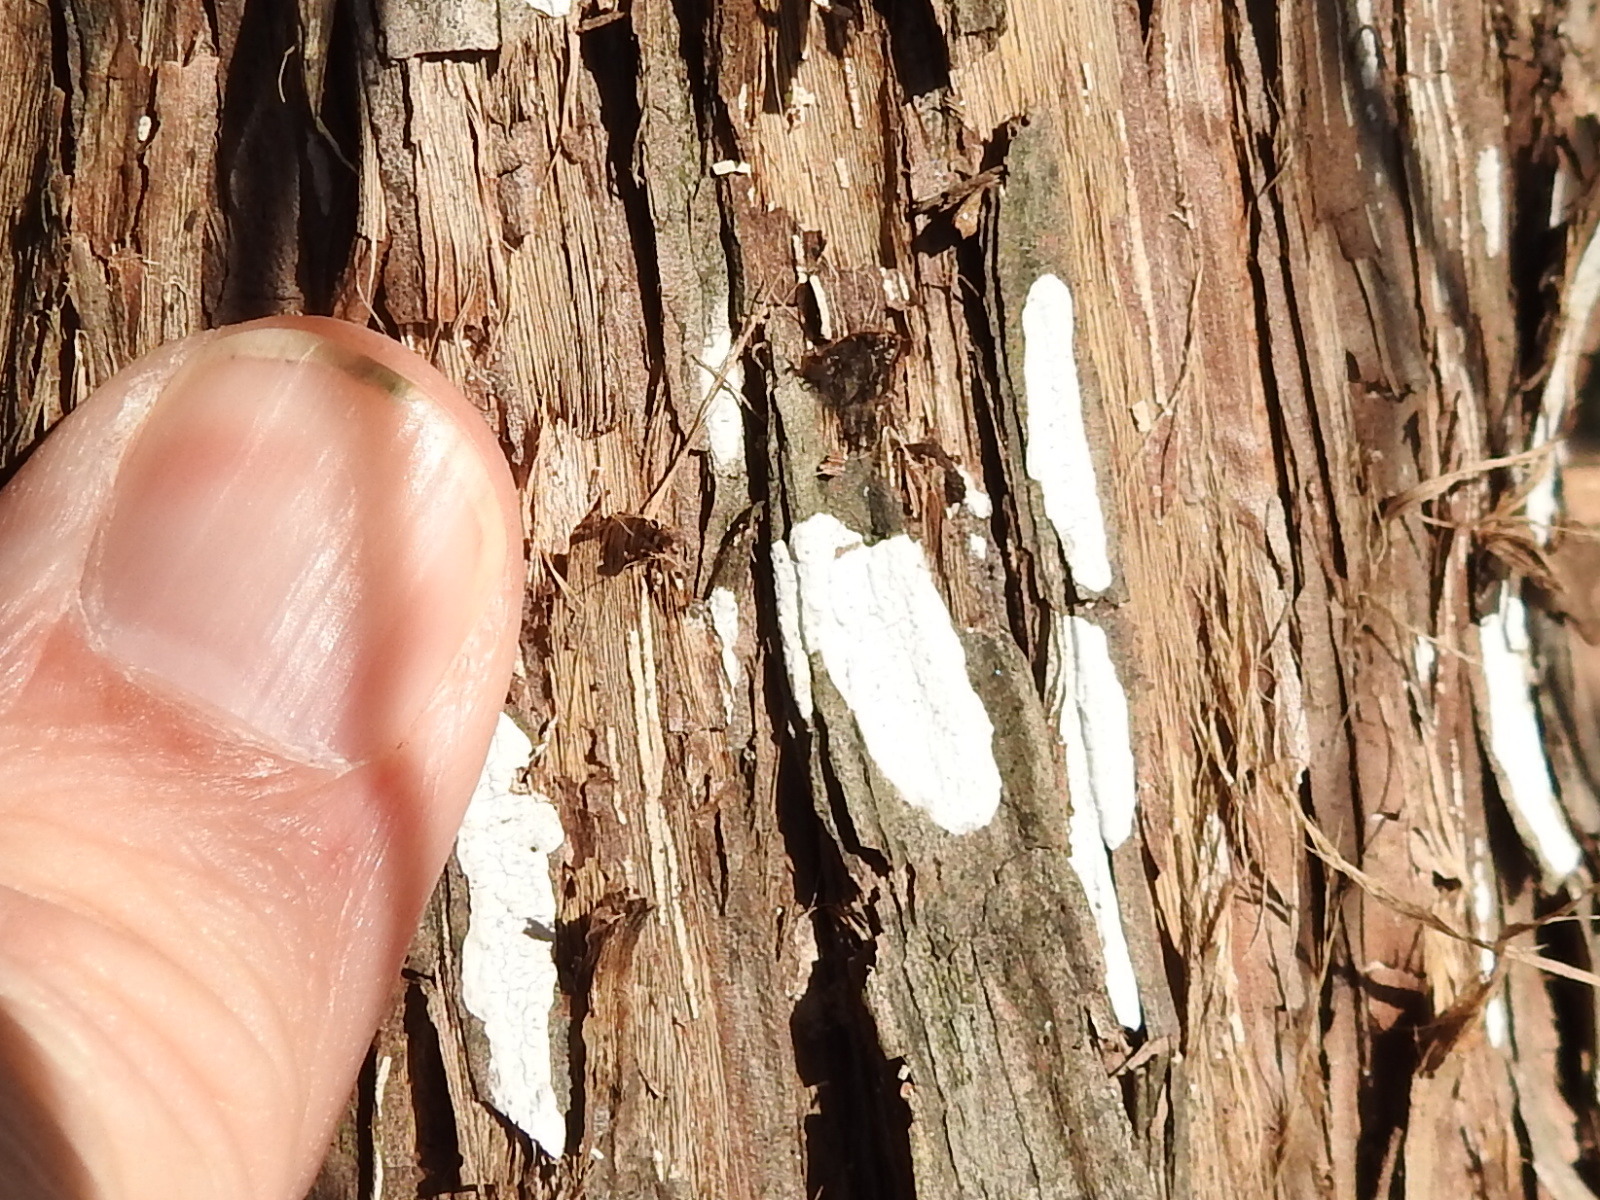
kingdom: Fungi
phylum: Basidiomycota
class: Agaricomycetes
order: Agaricales
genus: Dendrothele
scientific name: Dendrothele nivosa
